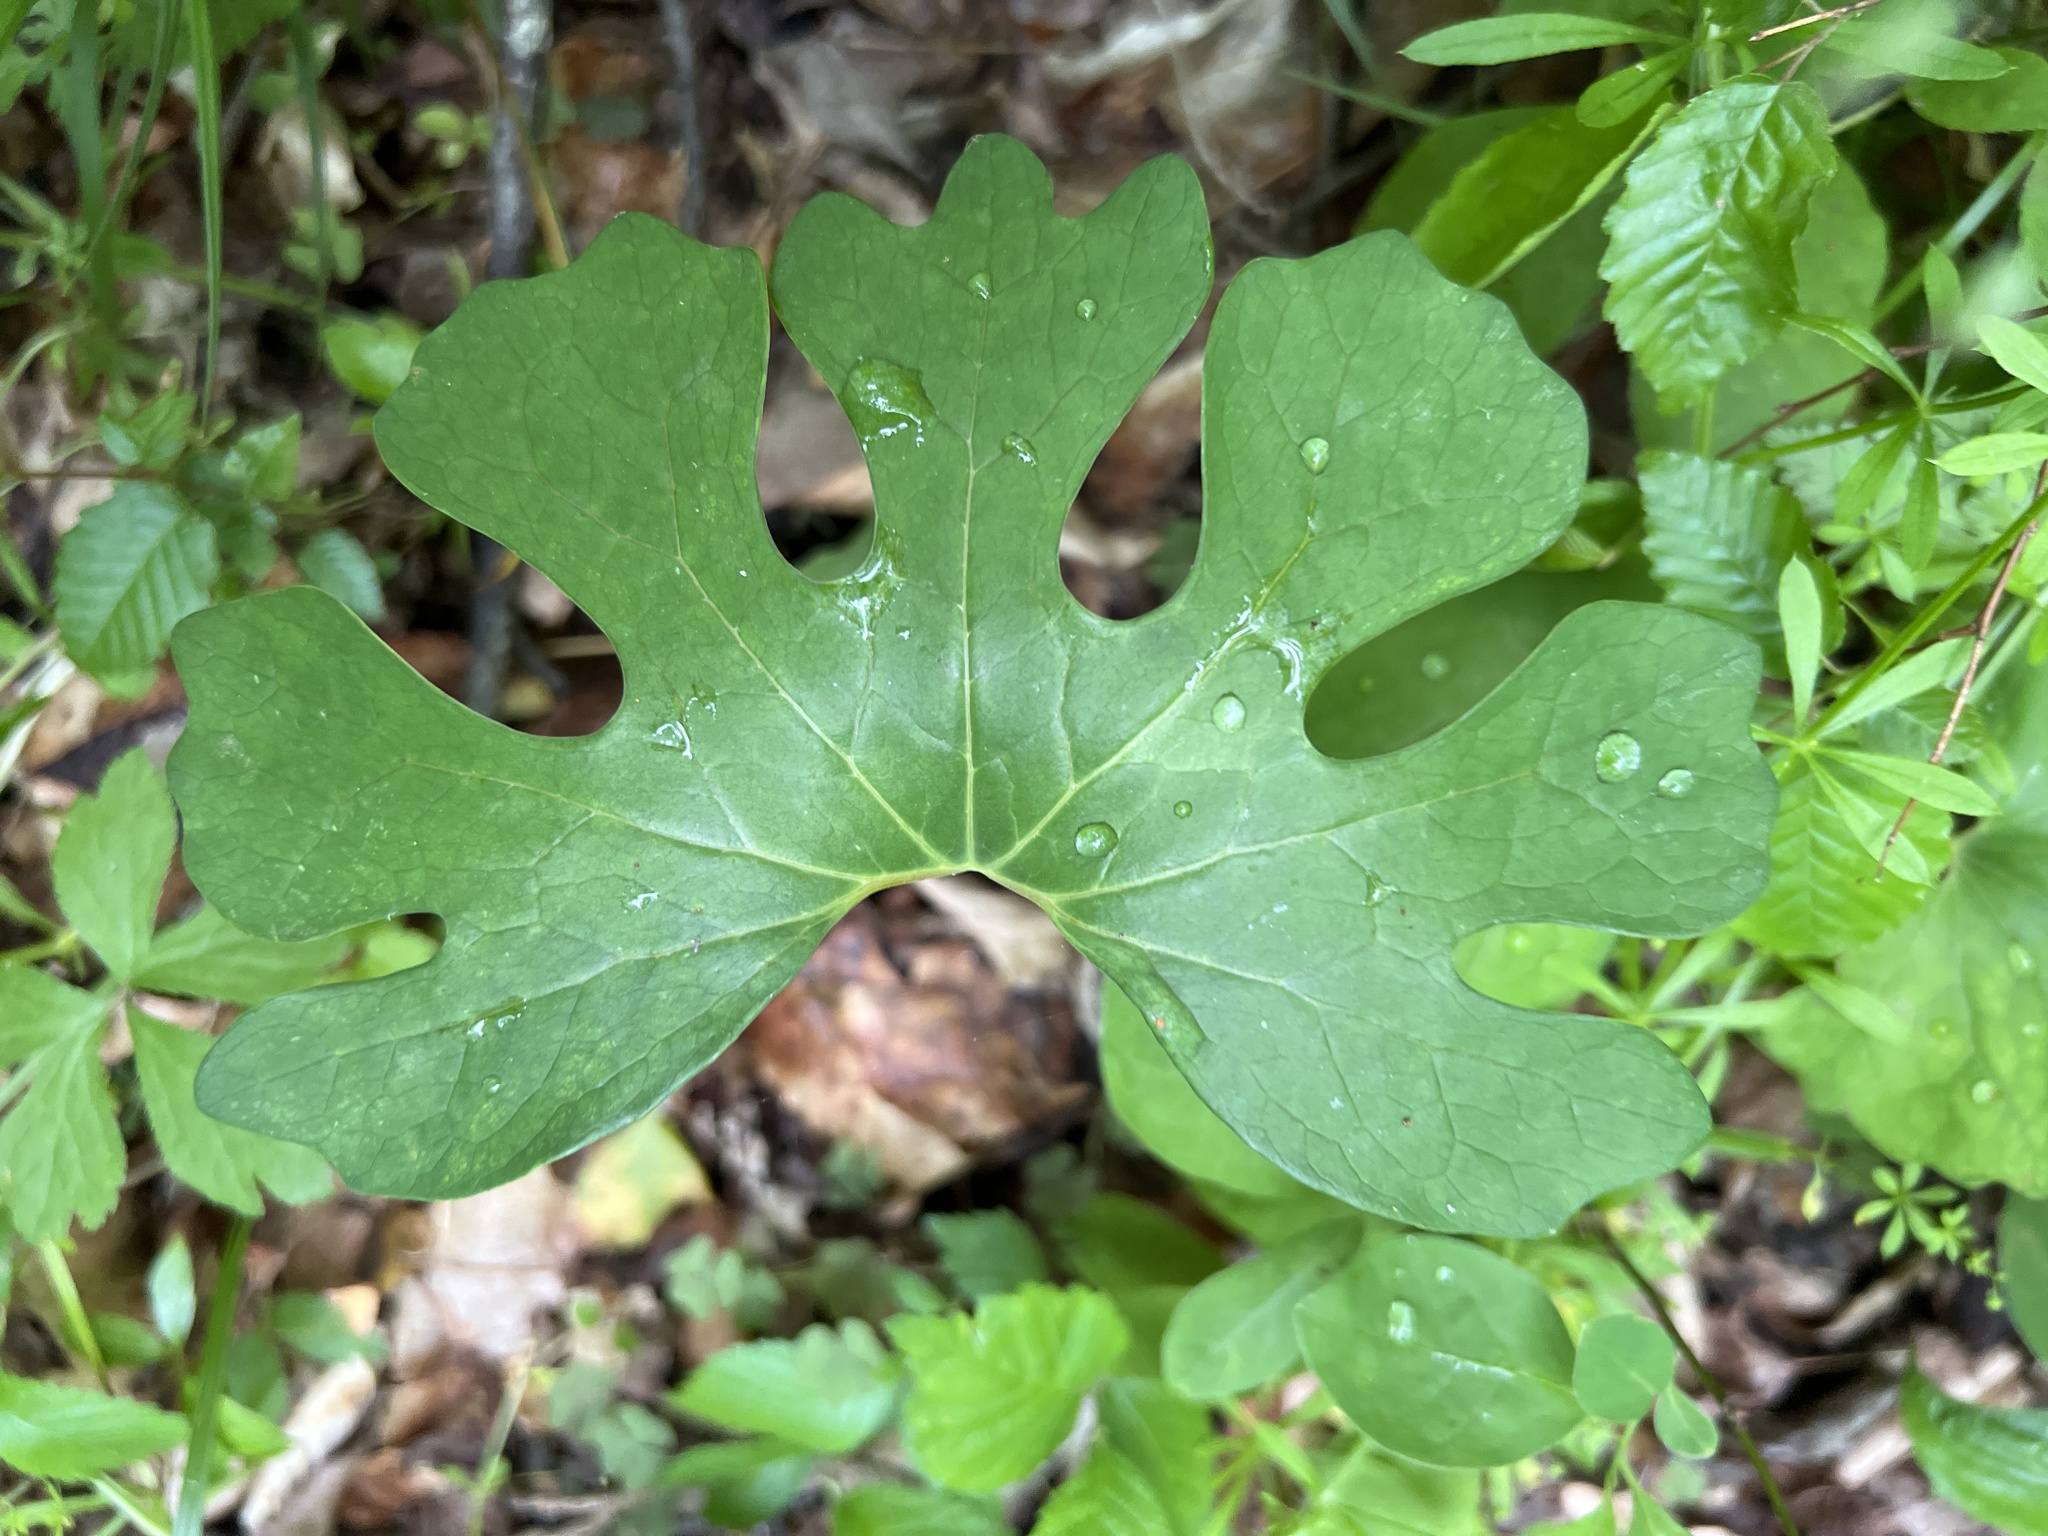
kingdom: Plantae
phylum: Tracheophyta
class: Magnoliopsida
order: Ranunculales
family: Papaveraceae
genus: Sanguinaria
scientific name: Sanguinaria canadensis
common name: Bloodroot
